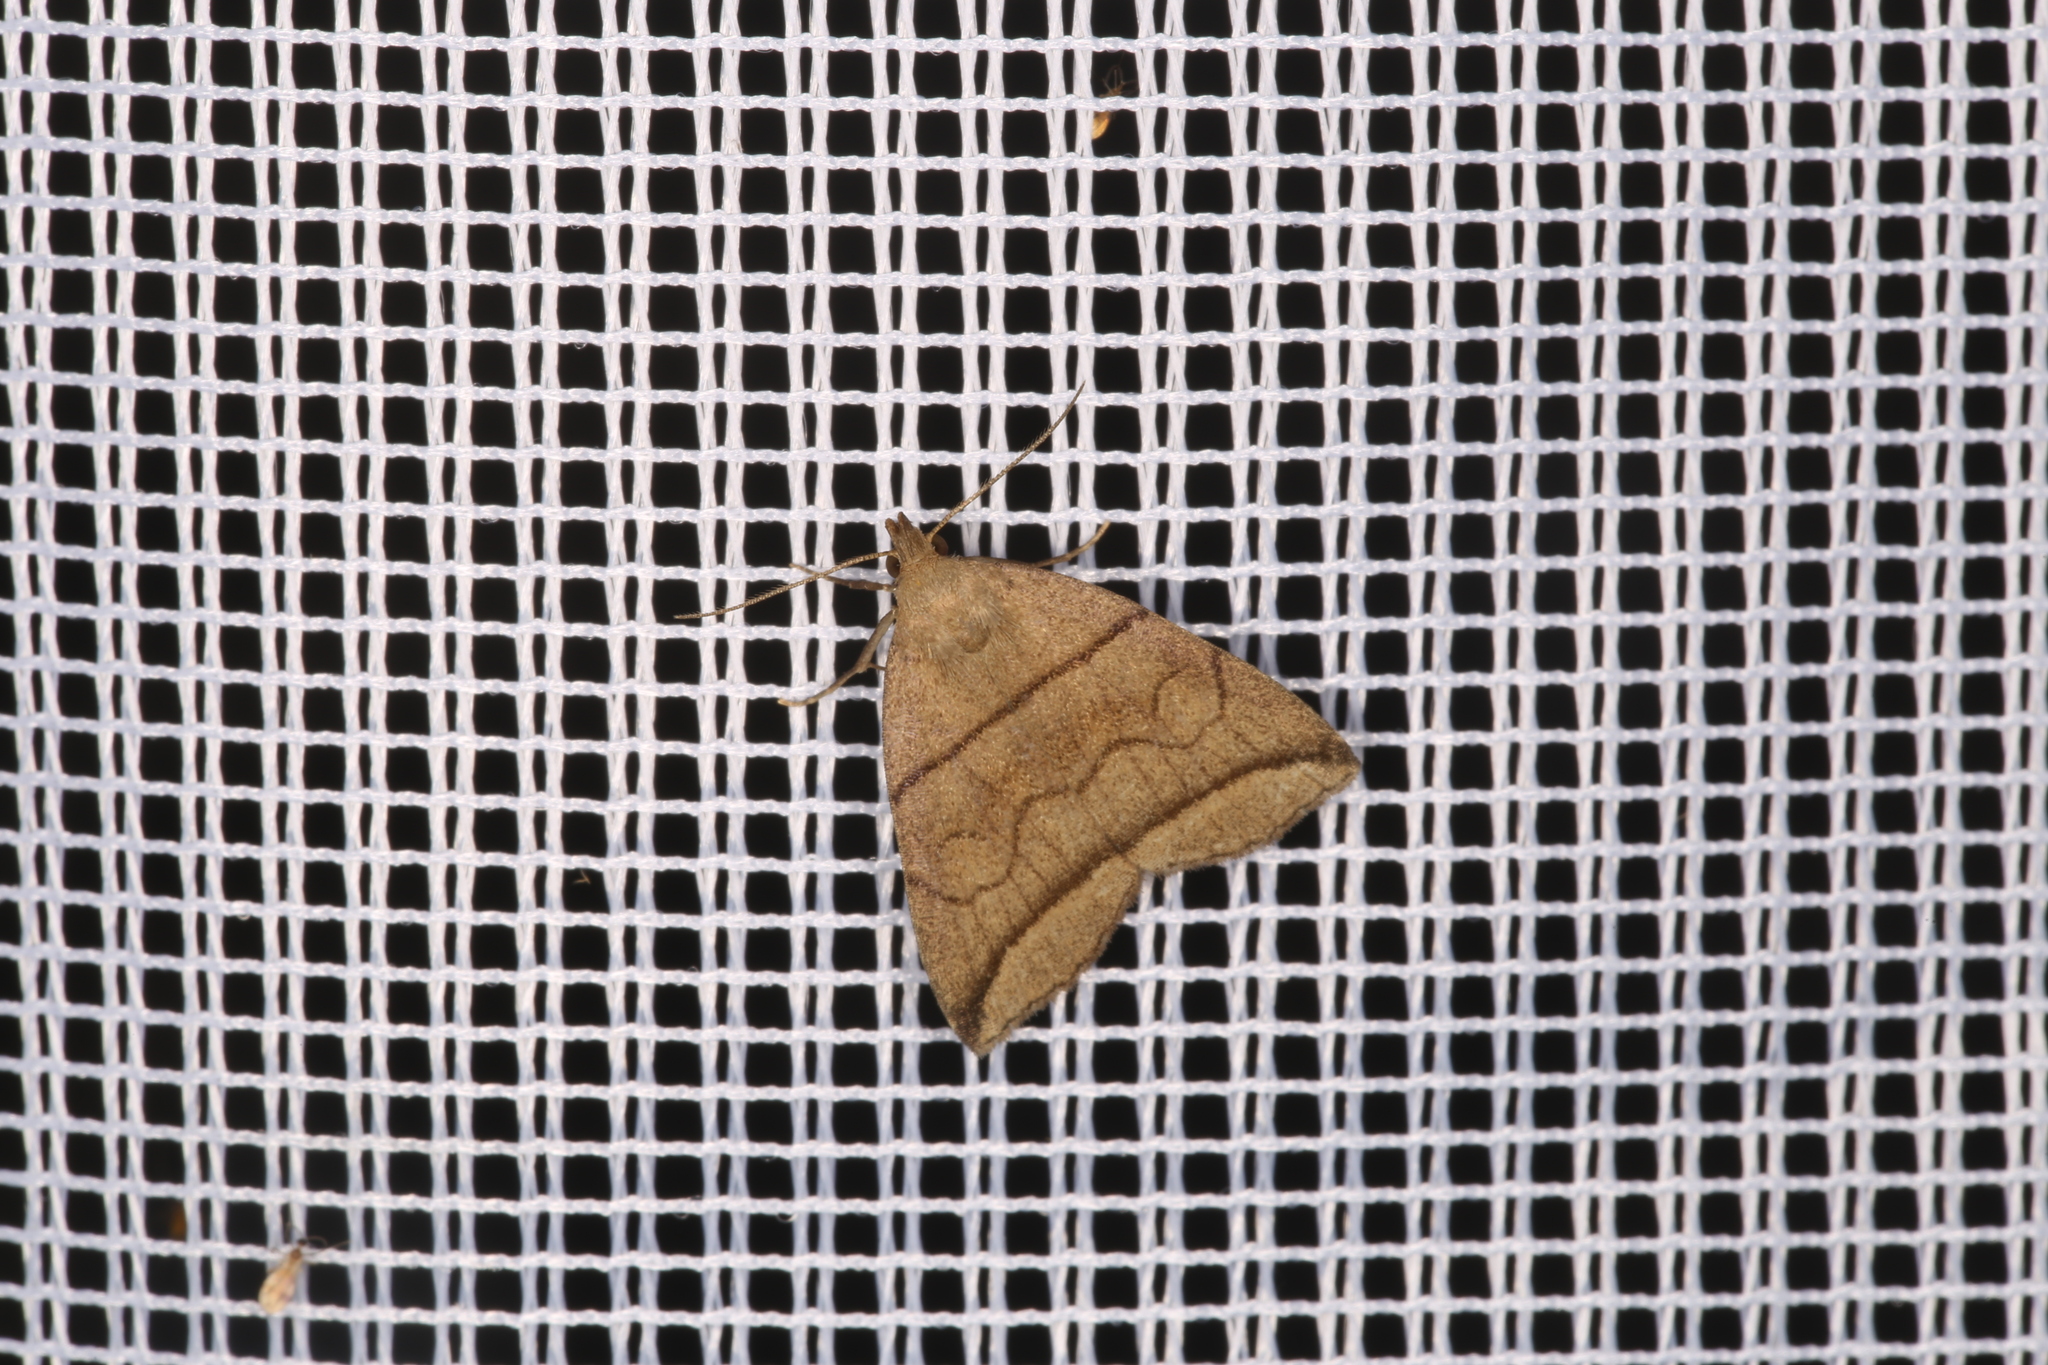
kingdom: Animalia
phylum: Arthropoda
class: Insecta
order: Lepidoptera
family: Erebidae
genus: Herminia
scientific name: Herminia grisealis
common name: Small fan-foot
